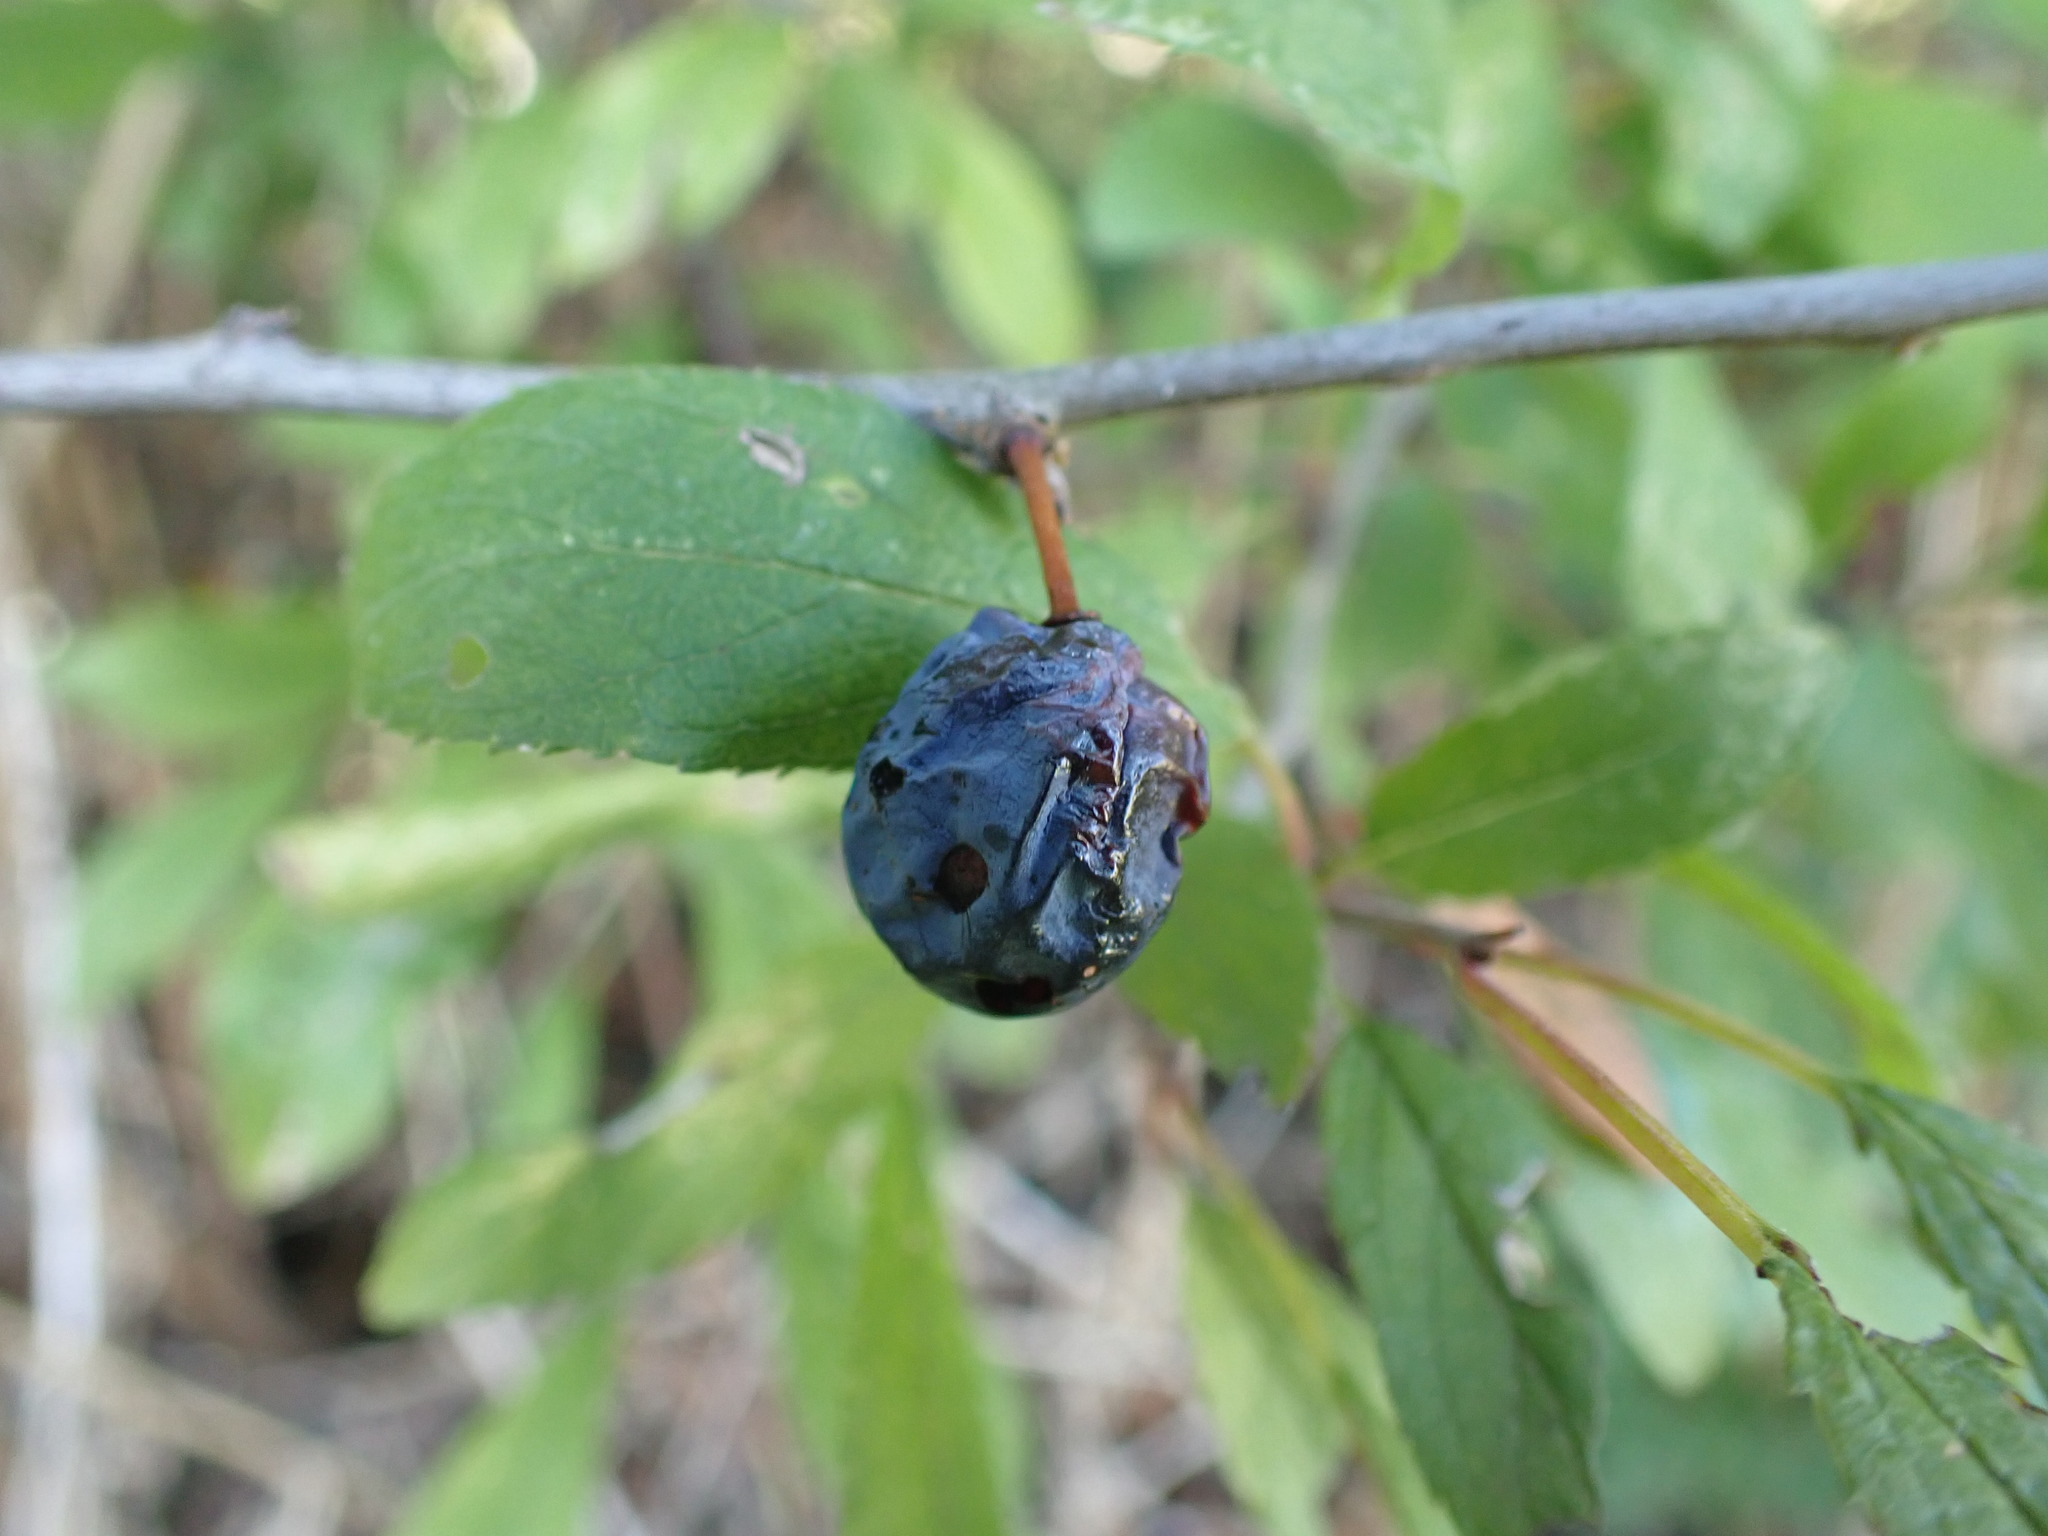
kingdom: Plantae
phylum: Tracheophyta
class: Magnoliopsida
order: Rosales
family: Rosaceae
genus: Prunus
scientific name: Prunus spinosa
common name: Blackthorn
